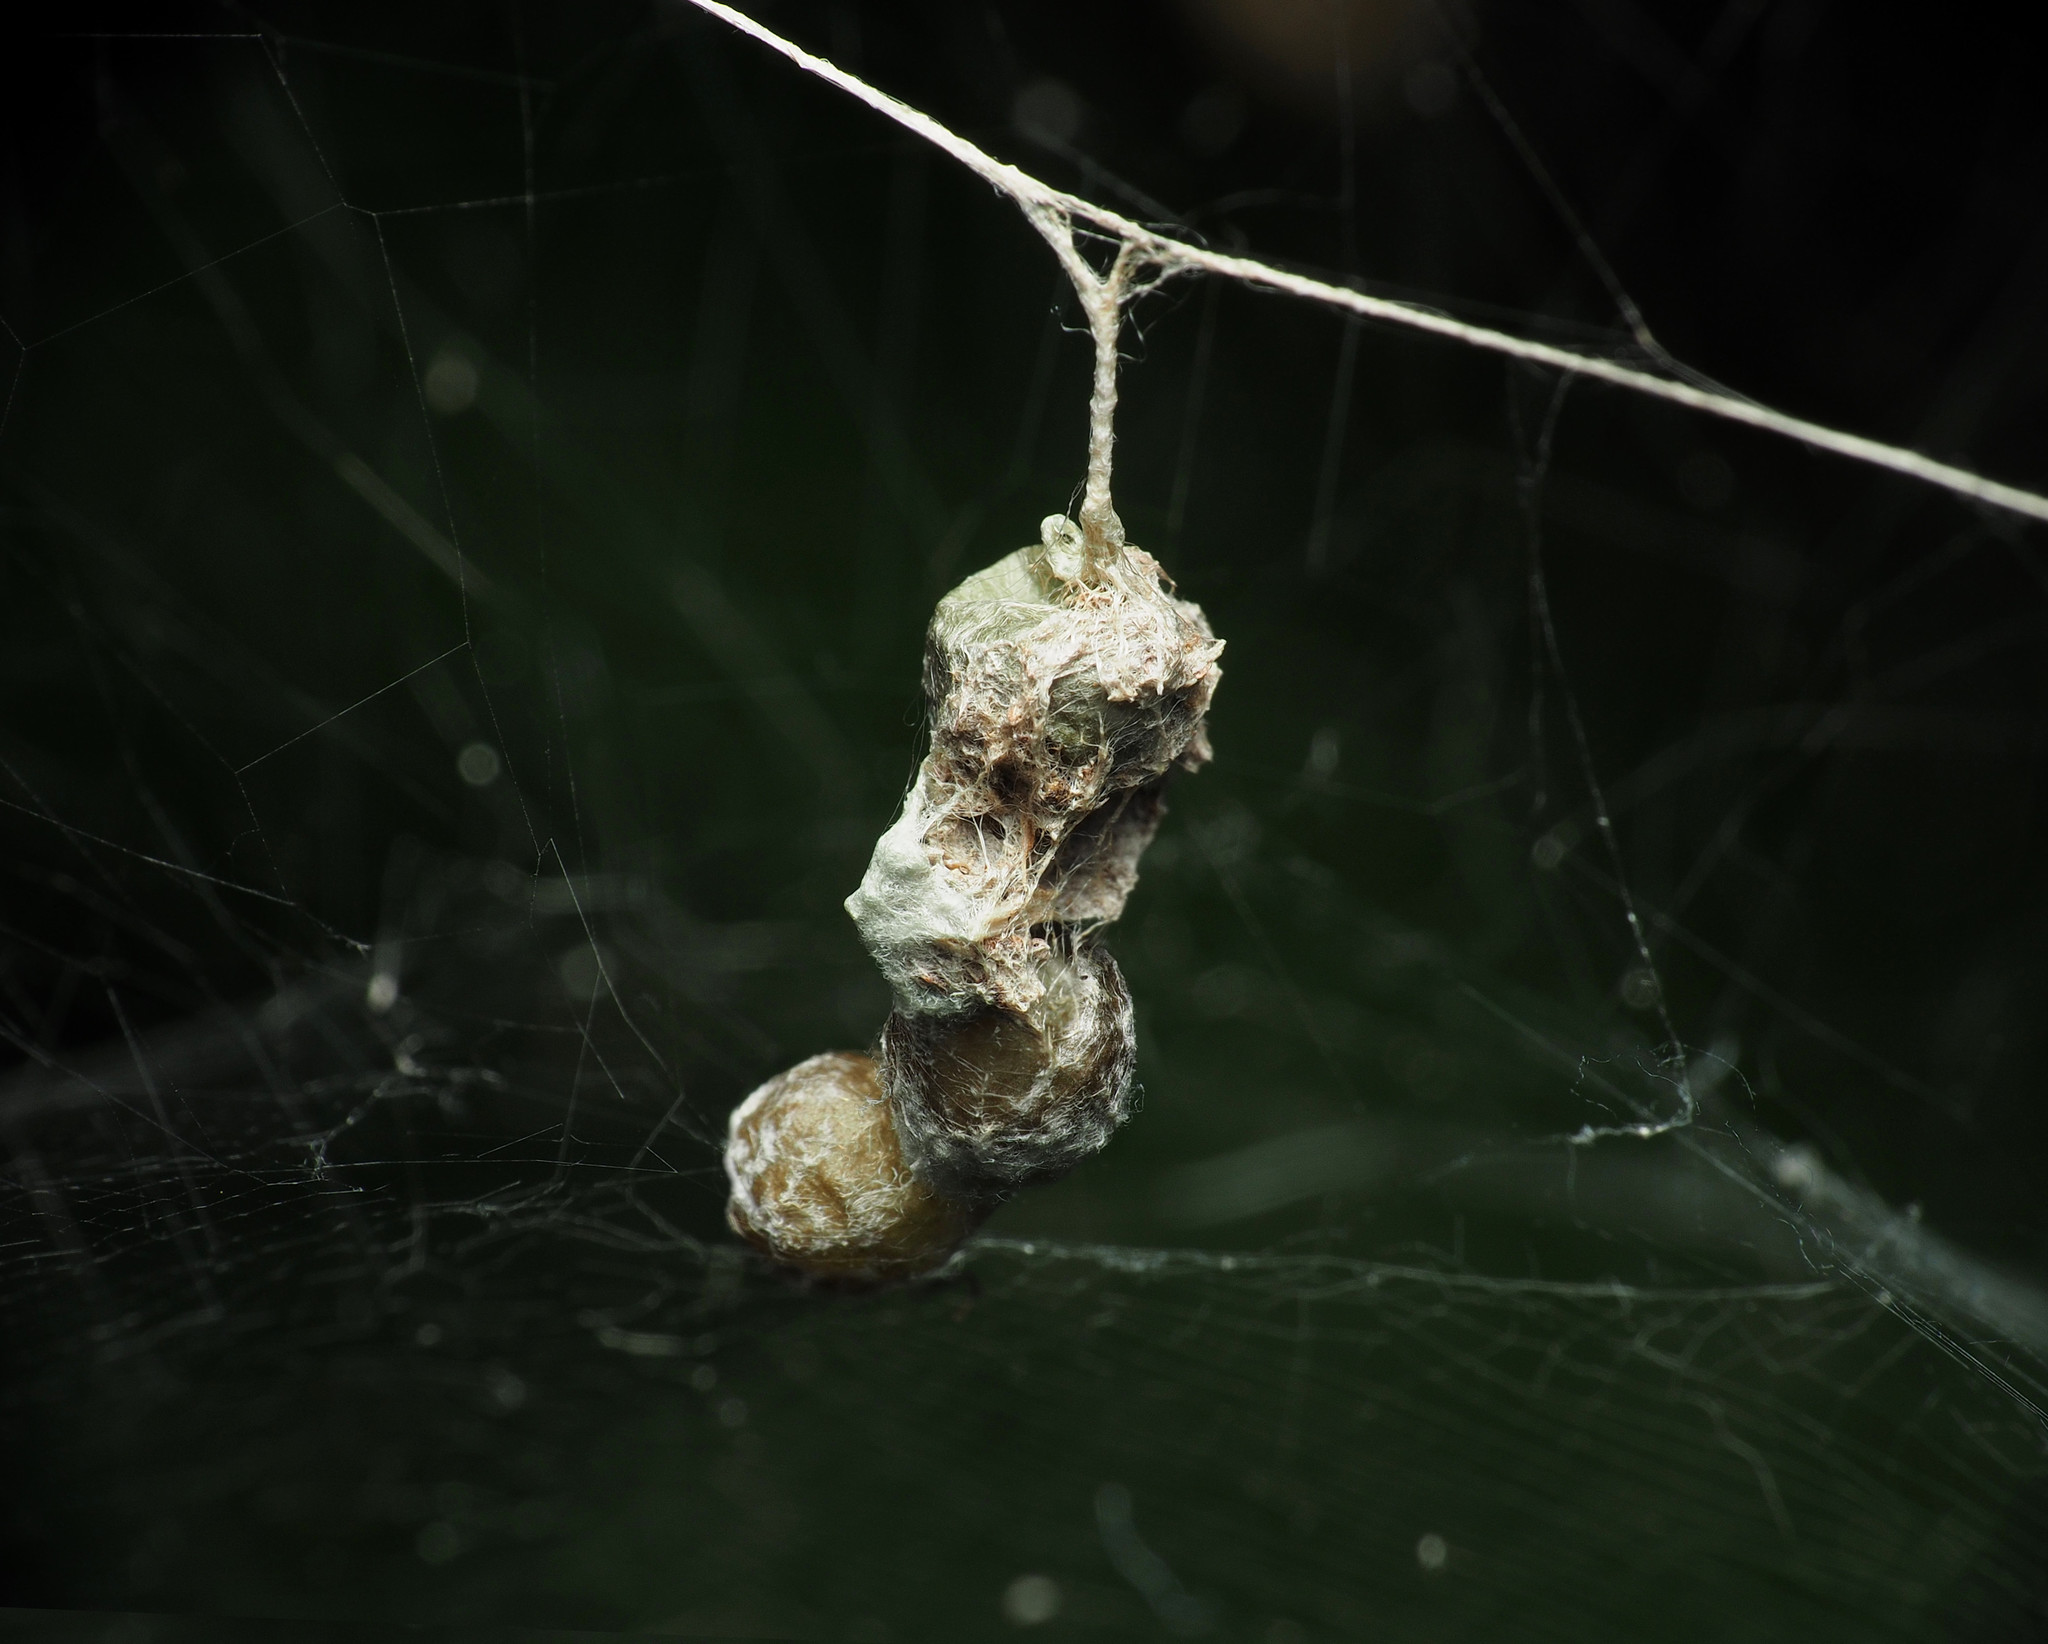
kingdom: Animalia
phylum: Arthropoda
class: Arachnida
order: Araneae
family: Araneidae
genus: Mecynogea
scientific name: Mecynogea lemniscata
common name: Orb weavers
